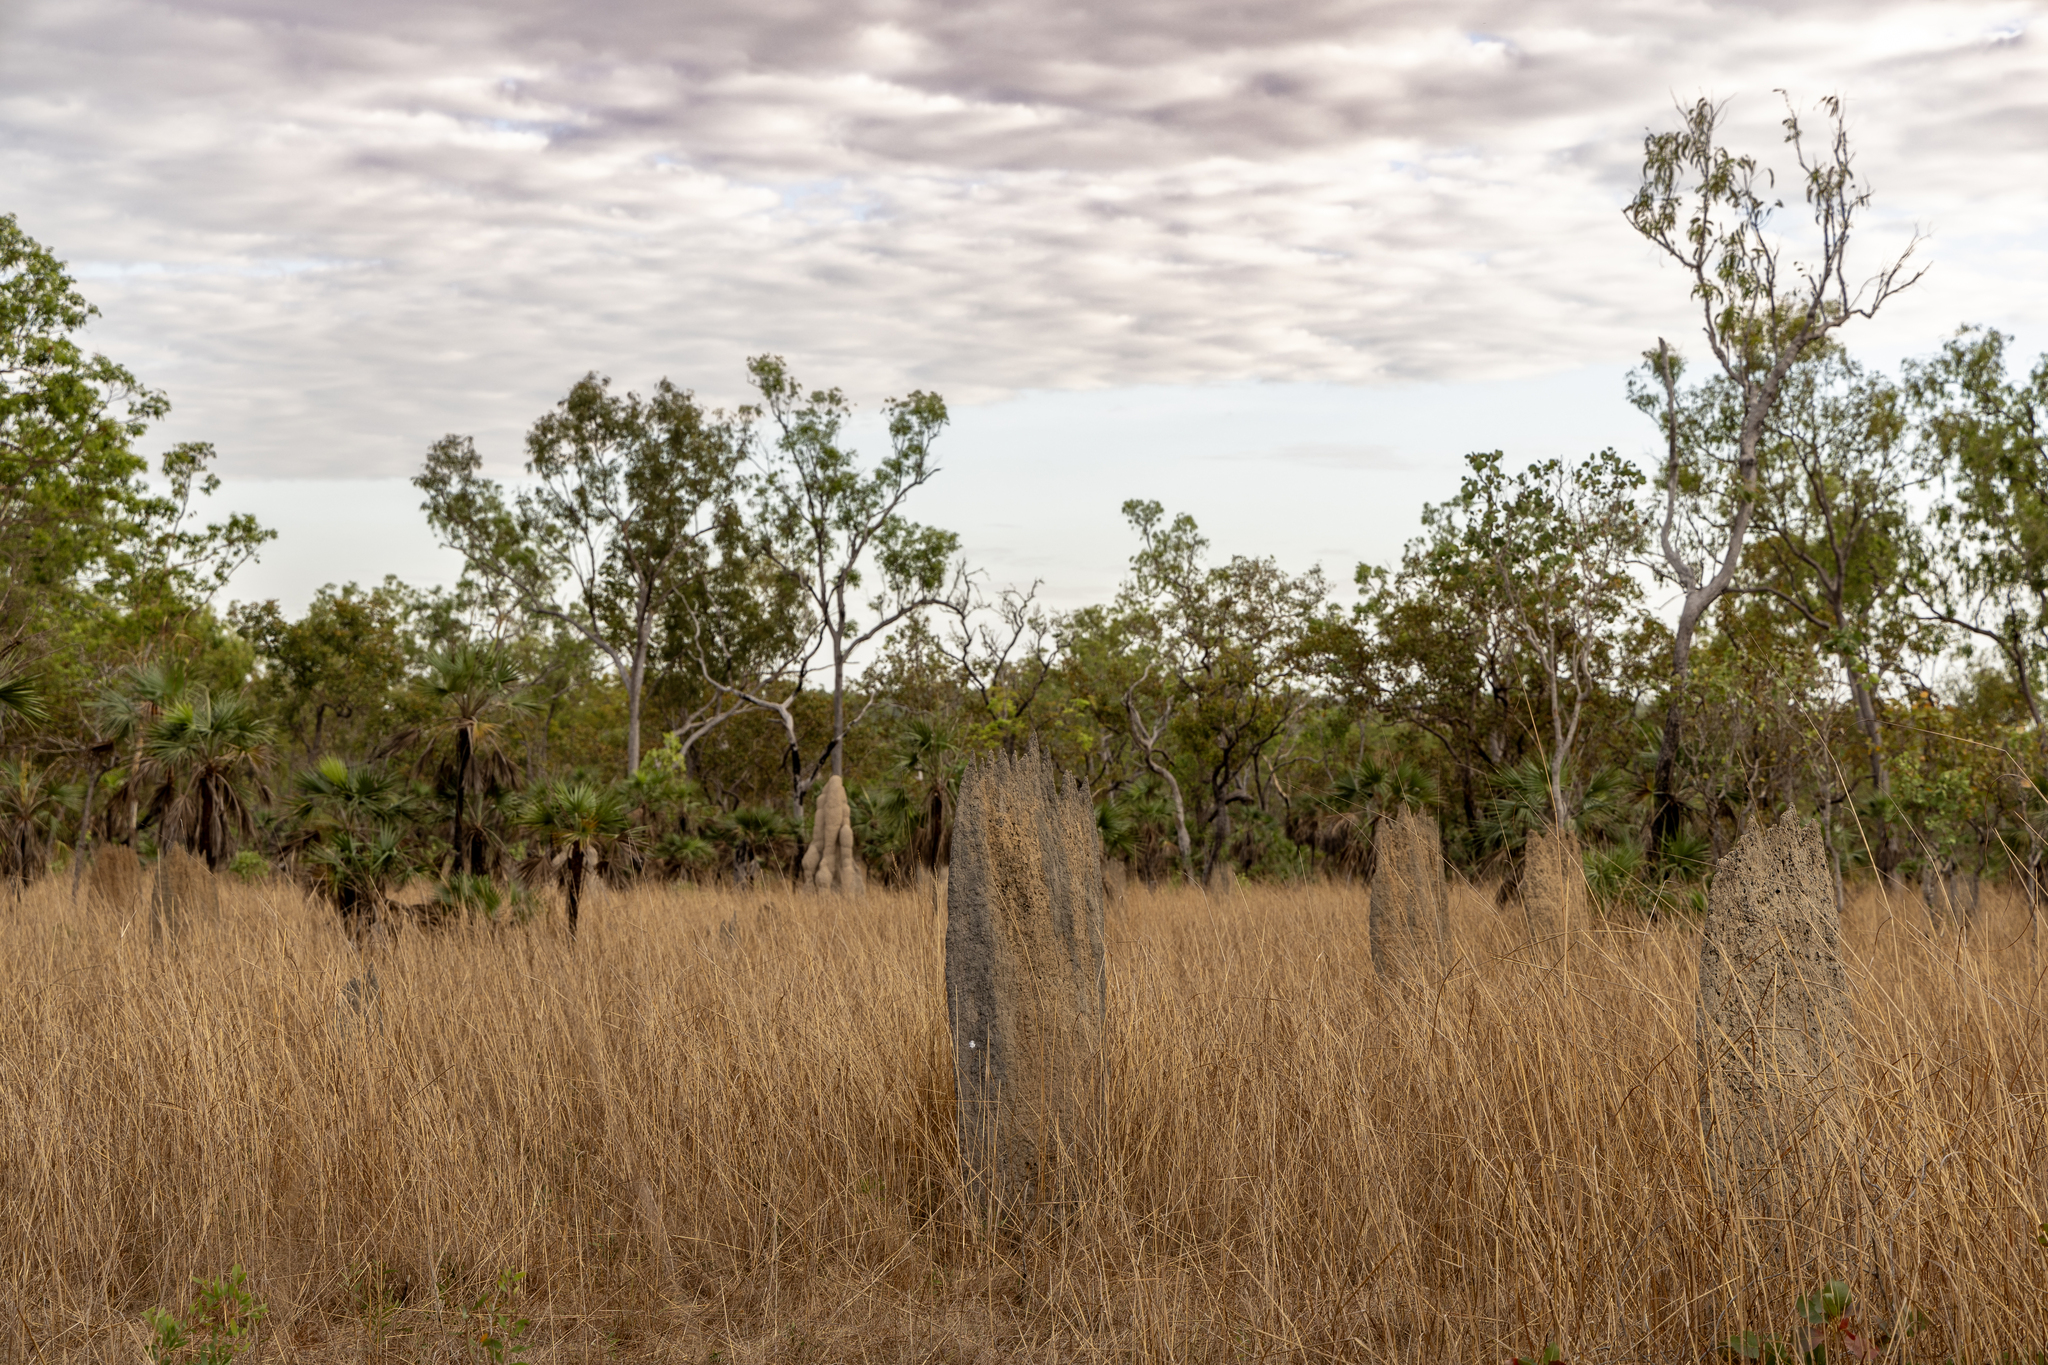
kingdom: Animalia
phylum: Arthropoda
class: Insecta
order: Blattodea
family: Termitidae
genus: Amitermes
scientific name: Amitermes meridionalis
